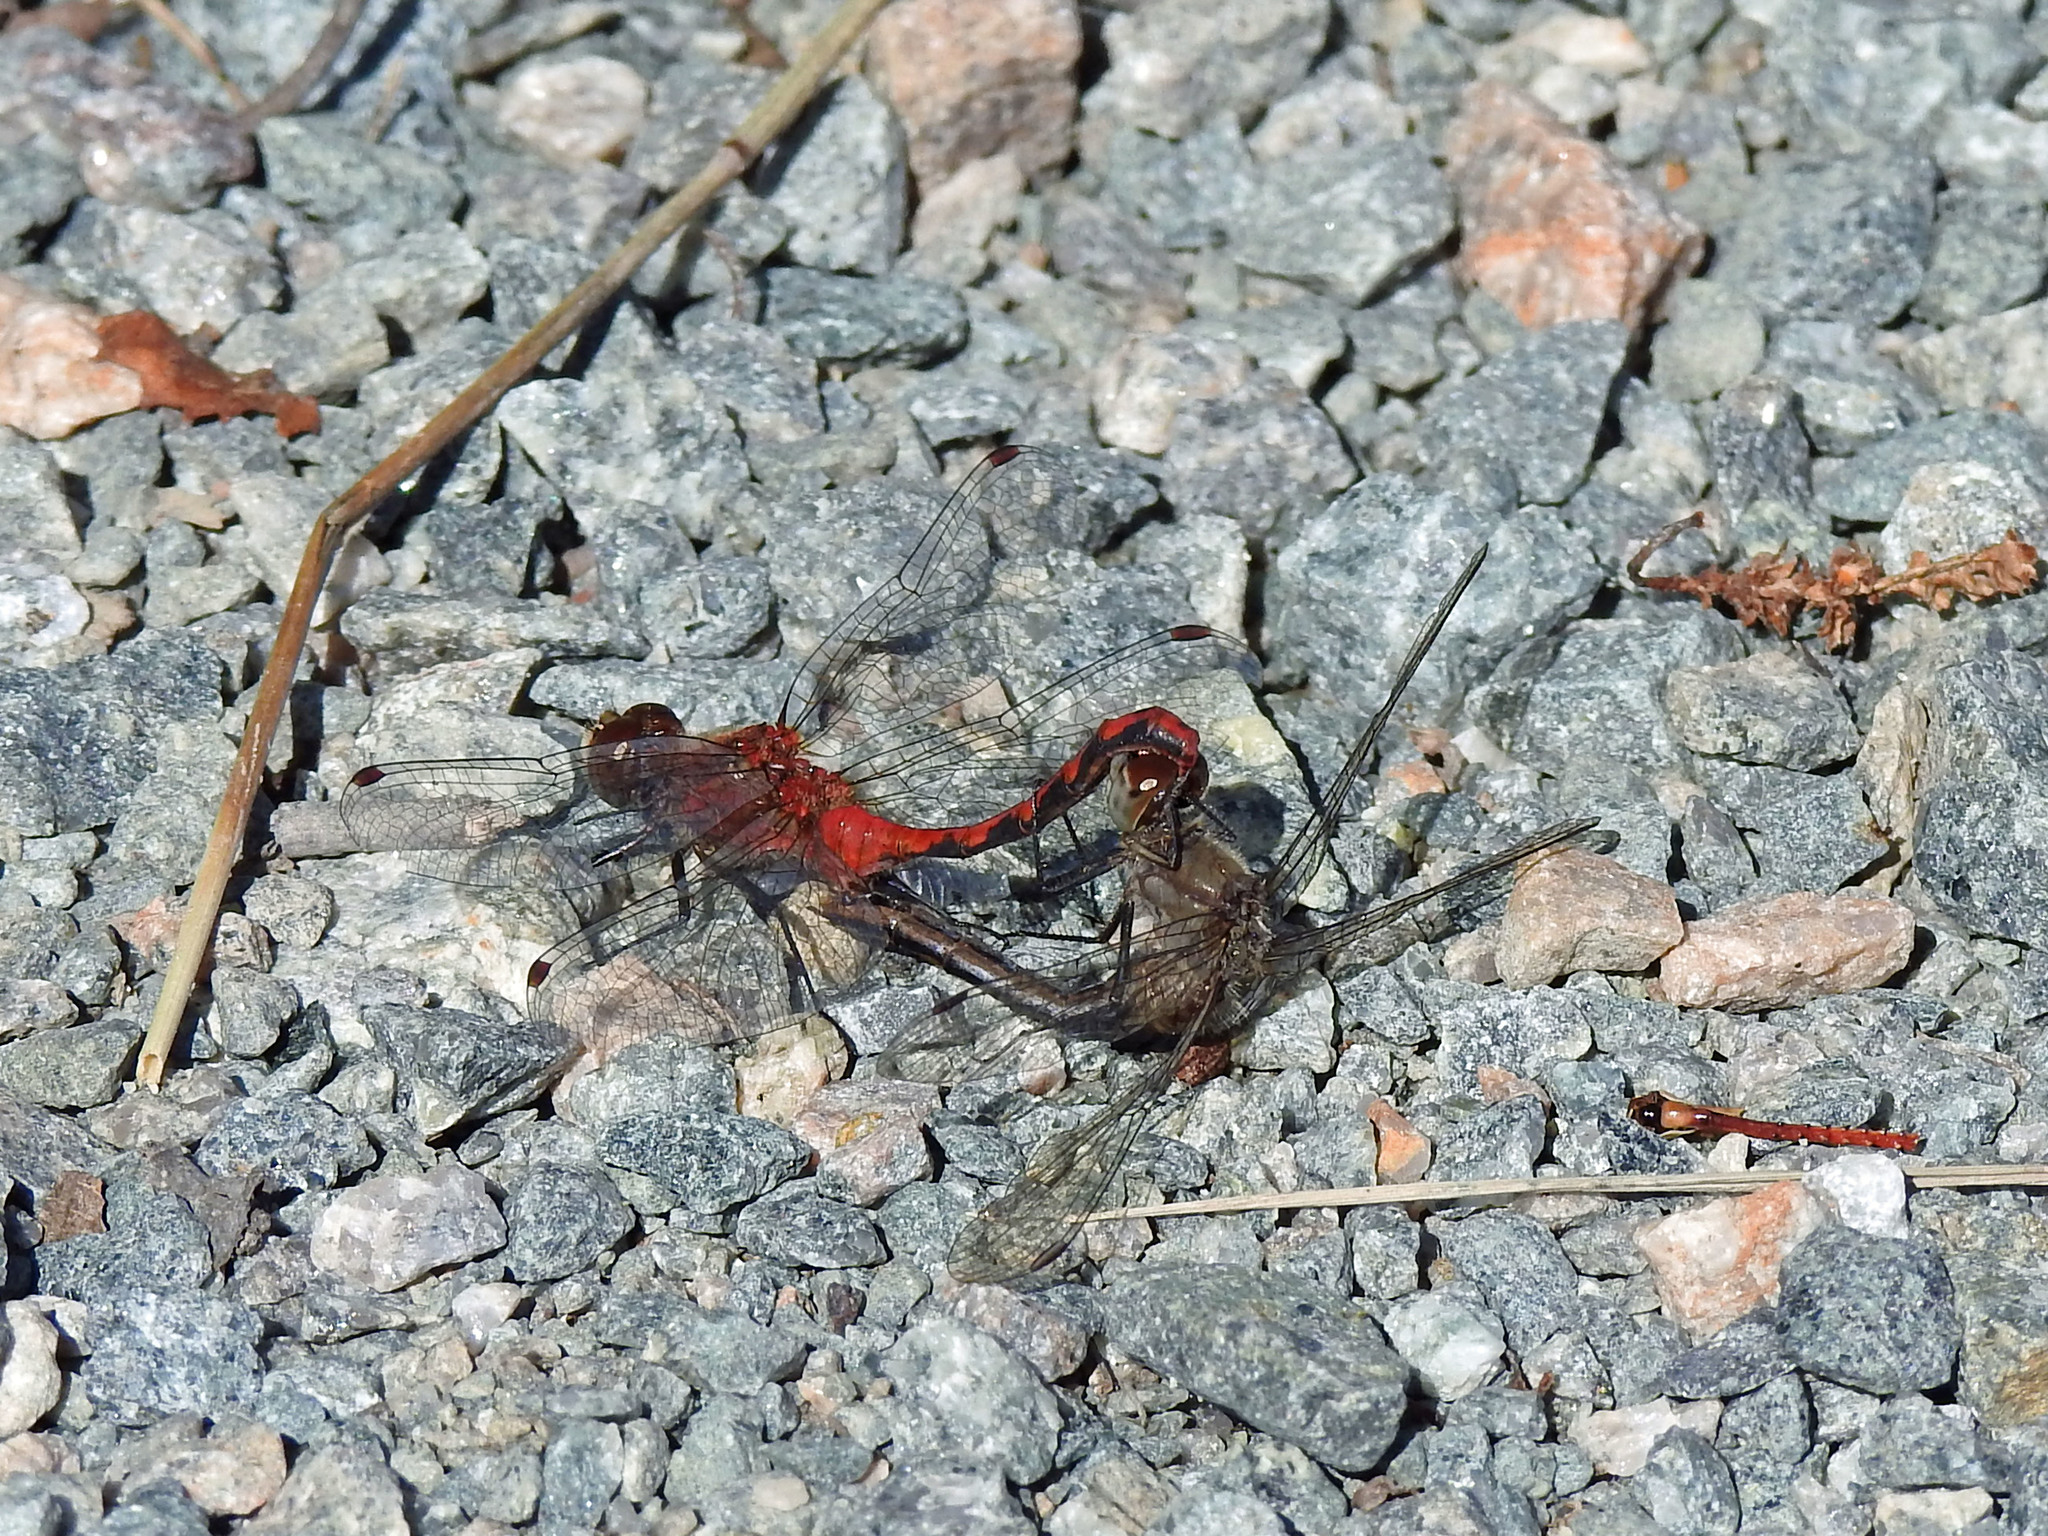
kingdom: Animalia
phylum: Arthropoda
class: Insecta
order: Odonata
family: Libellulidae
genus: Sympetrum
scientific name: Sympetrum obtrusum
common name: White-faced meadowhawk
